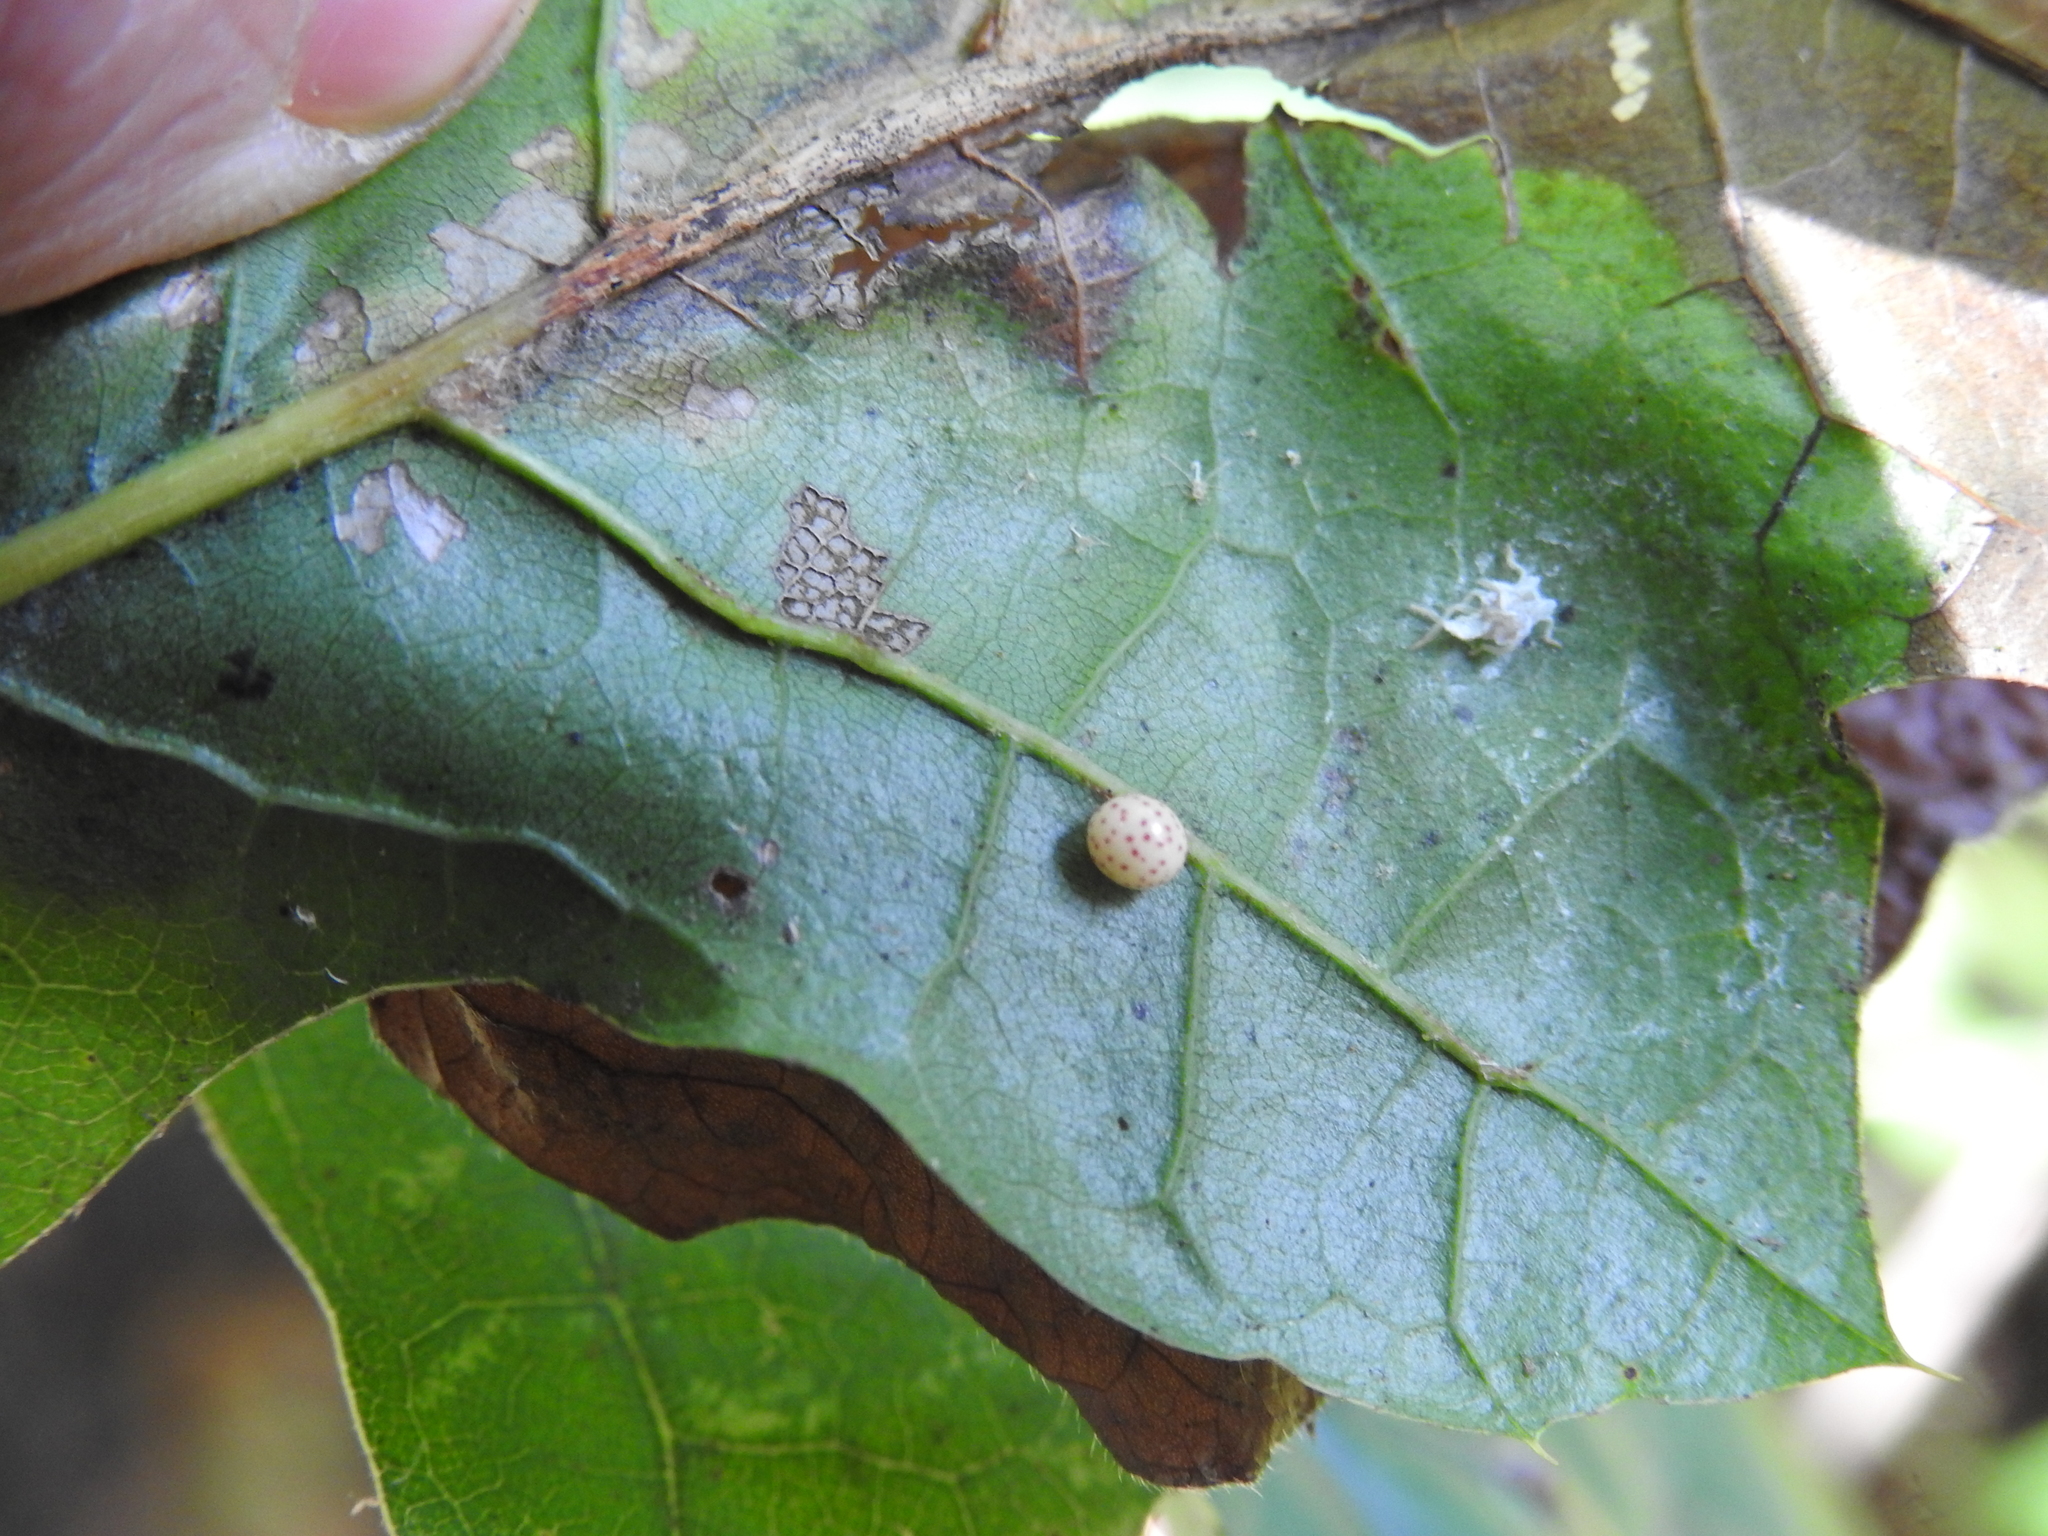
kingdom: Animalia
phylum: Arthropoda
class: Insecta
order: Hymenoptera
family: Cynipidae
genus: Zopheroteras
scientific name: Zopheroteras
